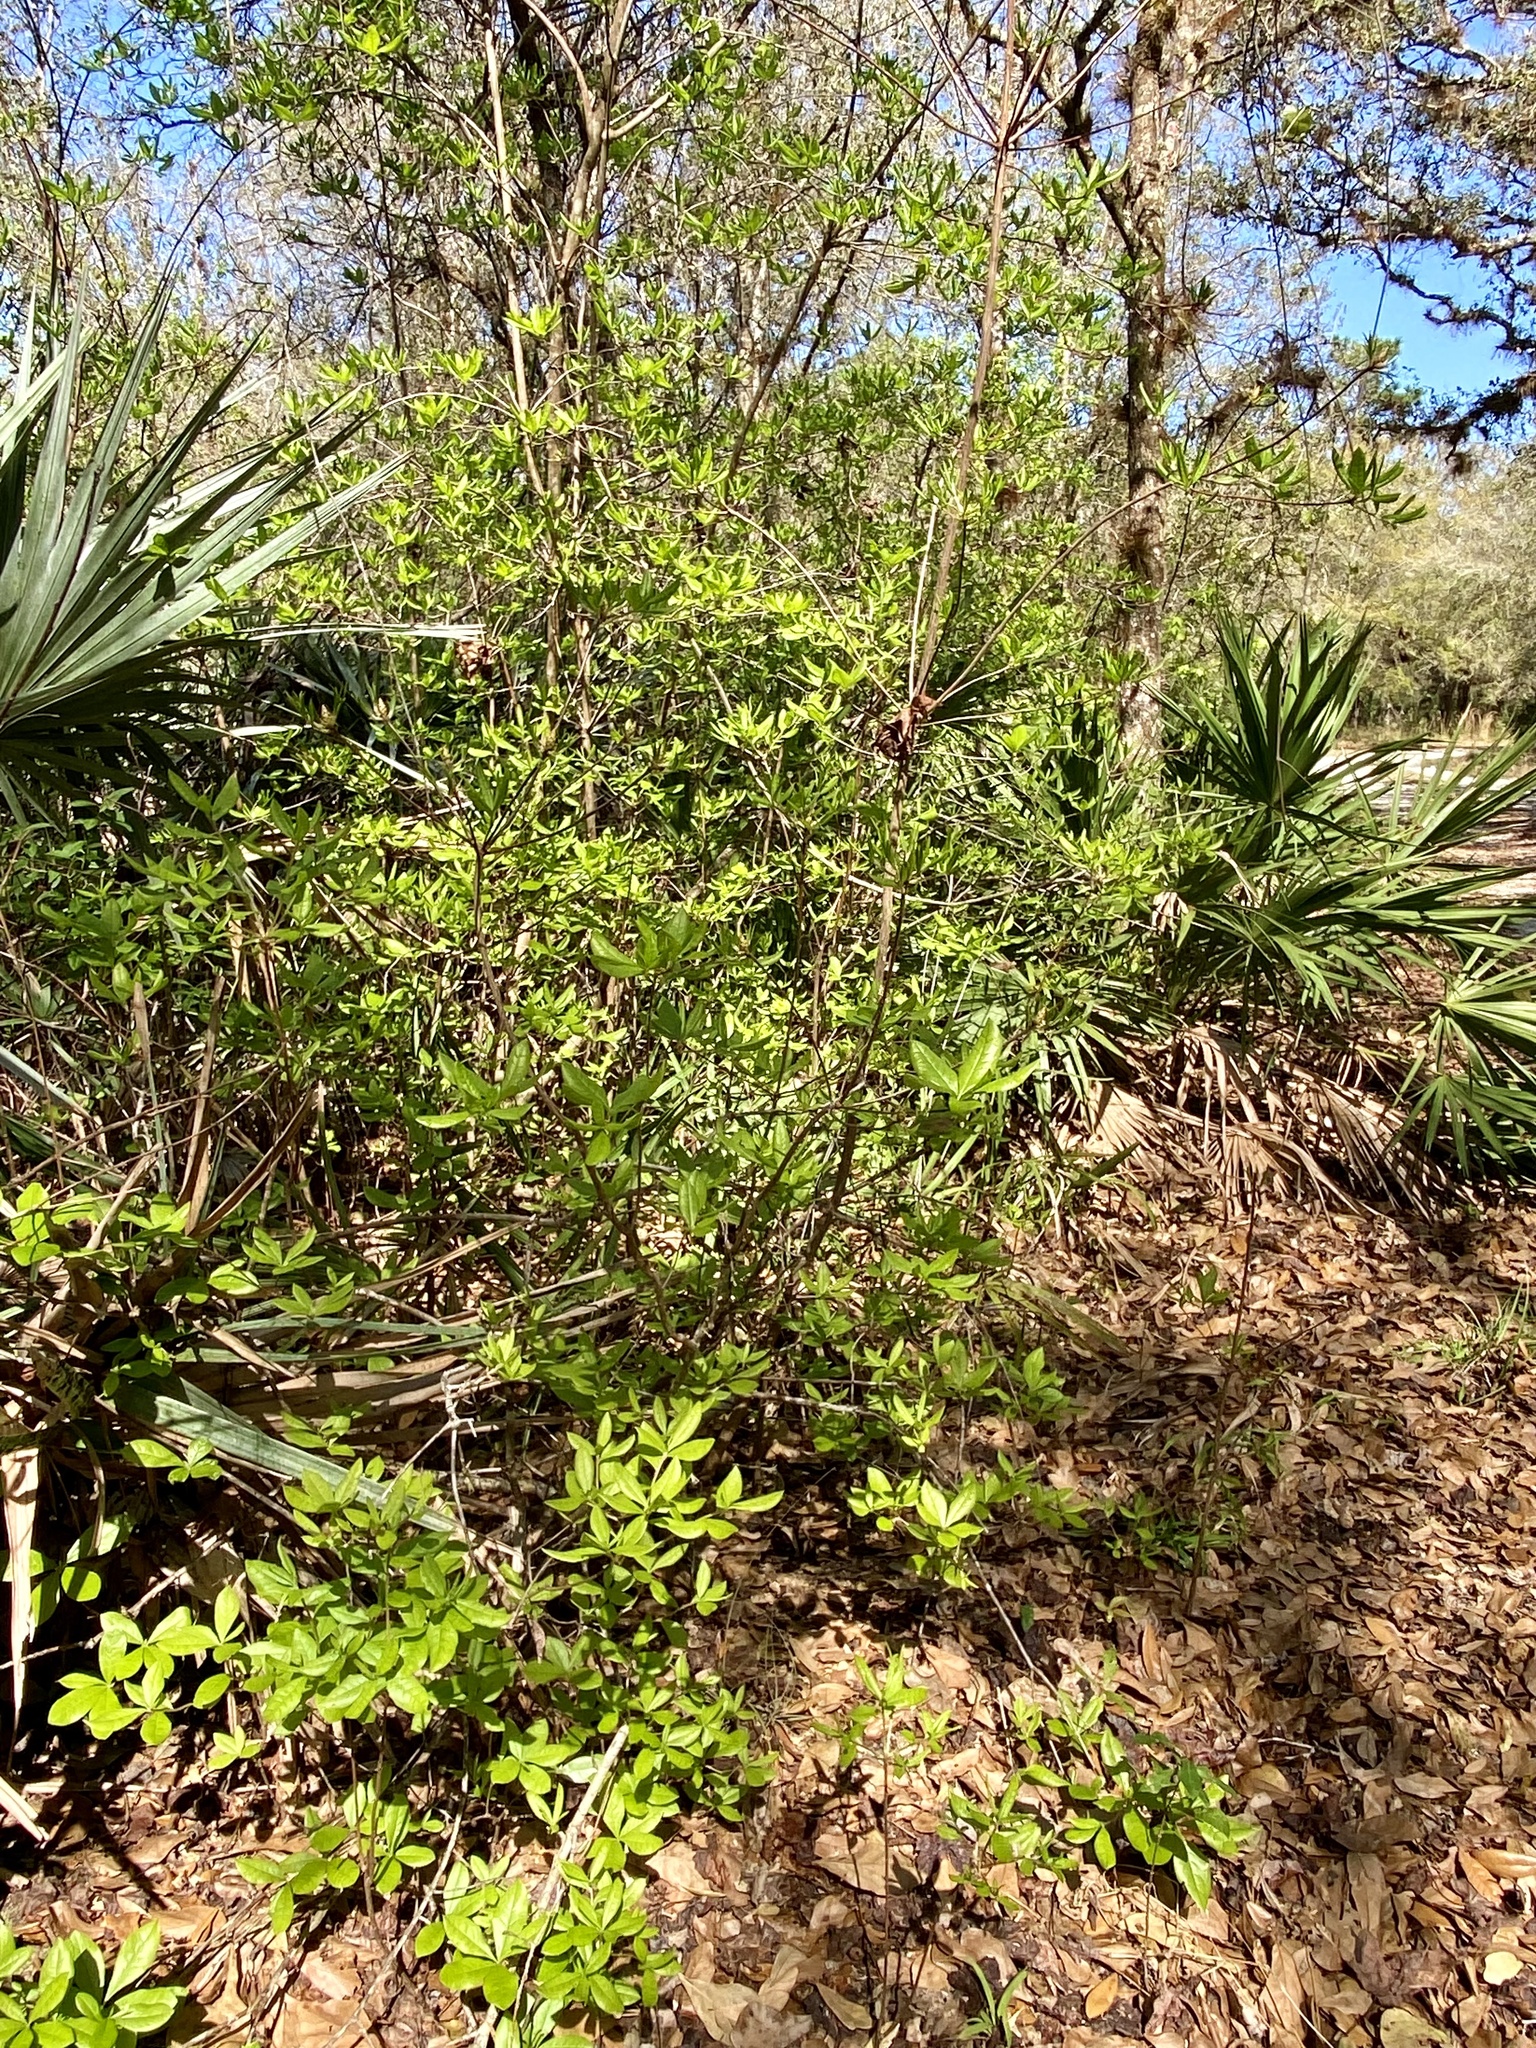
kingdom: Plantae
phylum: Tracheophyta
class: Magnoliopsida
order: Ericales
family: Ericaceae
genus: Rhododendron
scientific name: Rhododendron serrulatum
